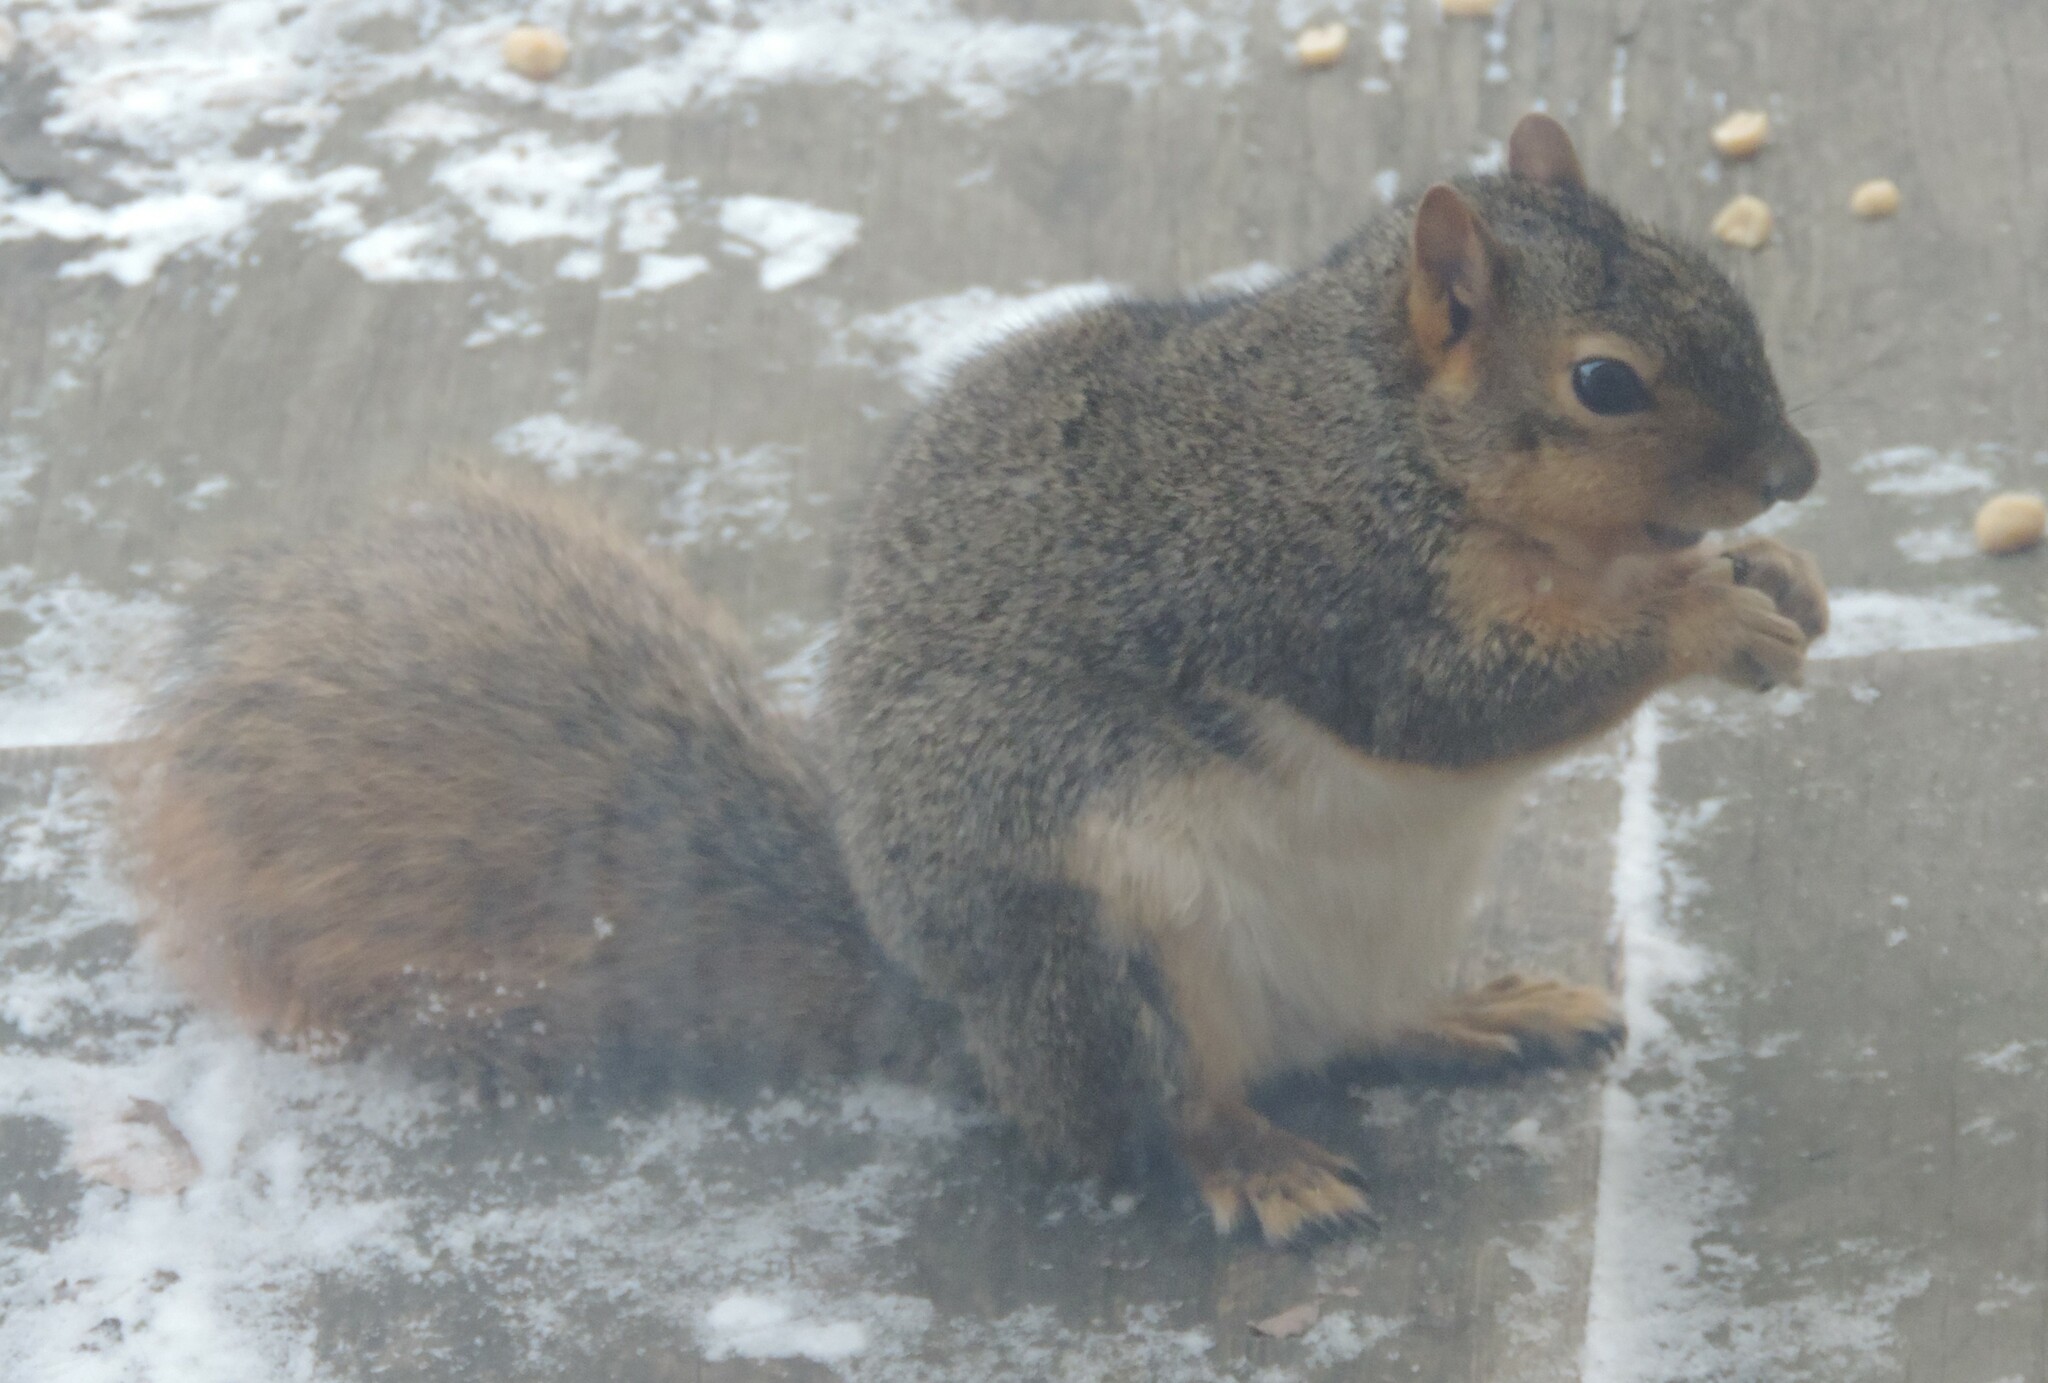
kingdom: Animalia
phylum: Chordata
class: Mammalia
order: Rodentia
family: Sciuridae
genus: Sciurus
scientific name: Sciurus niger
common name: Fox squirrel
